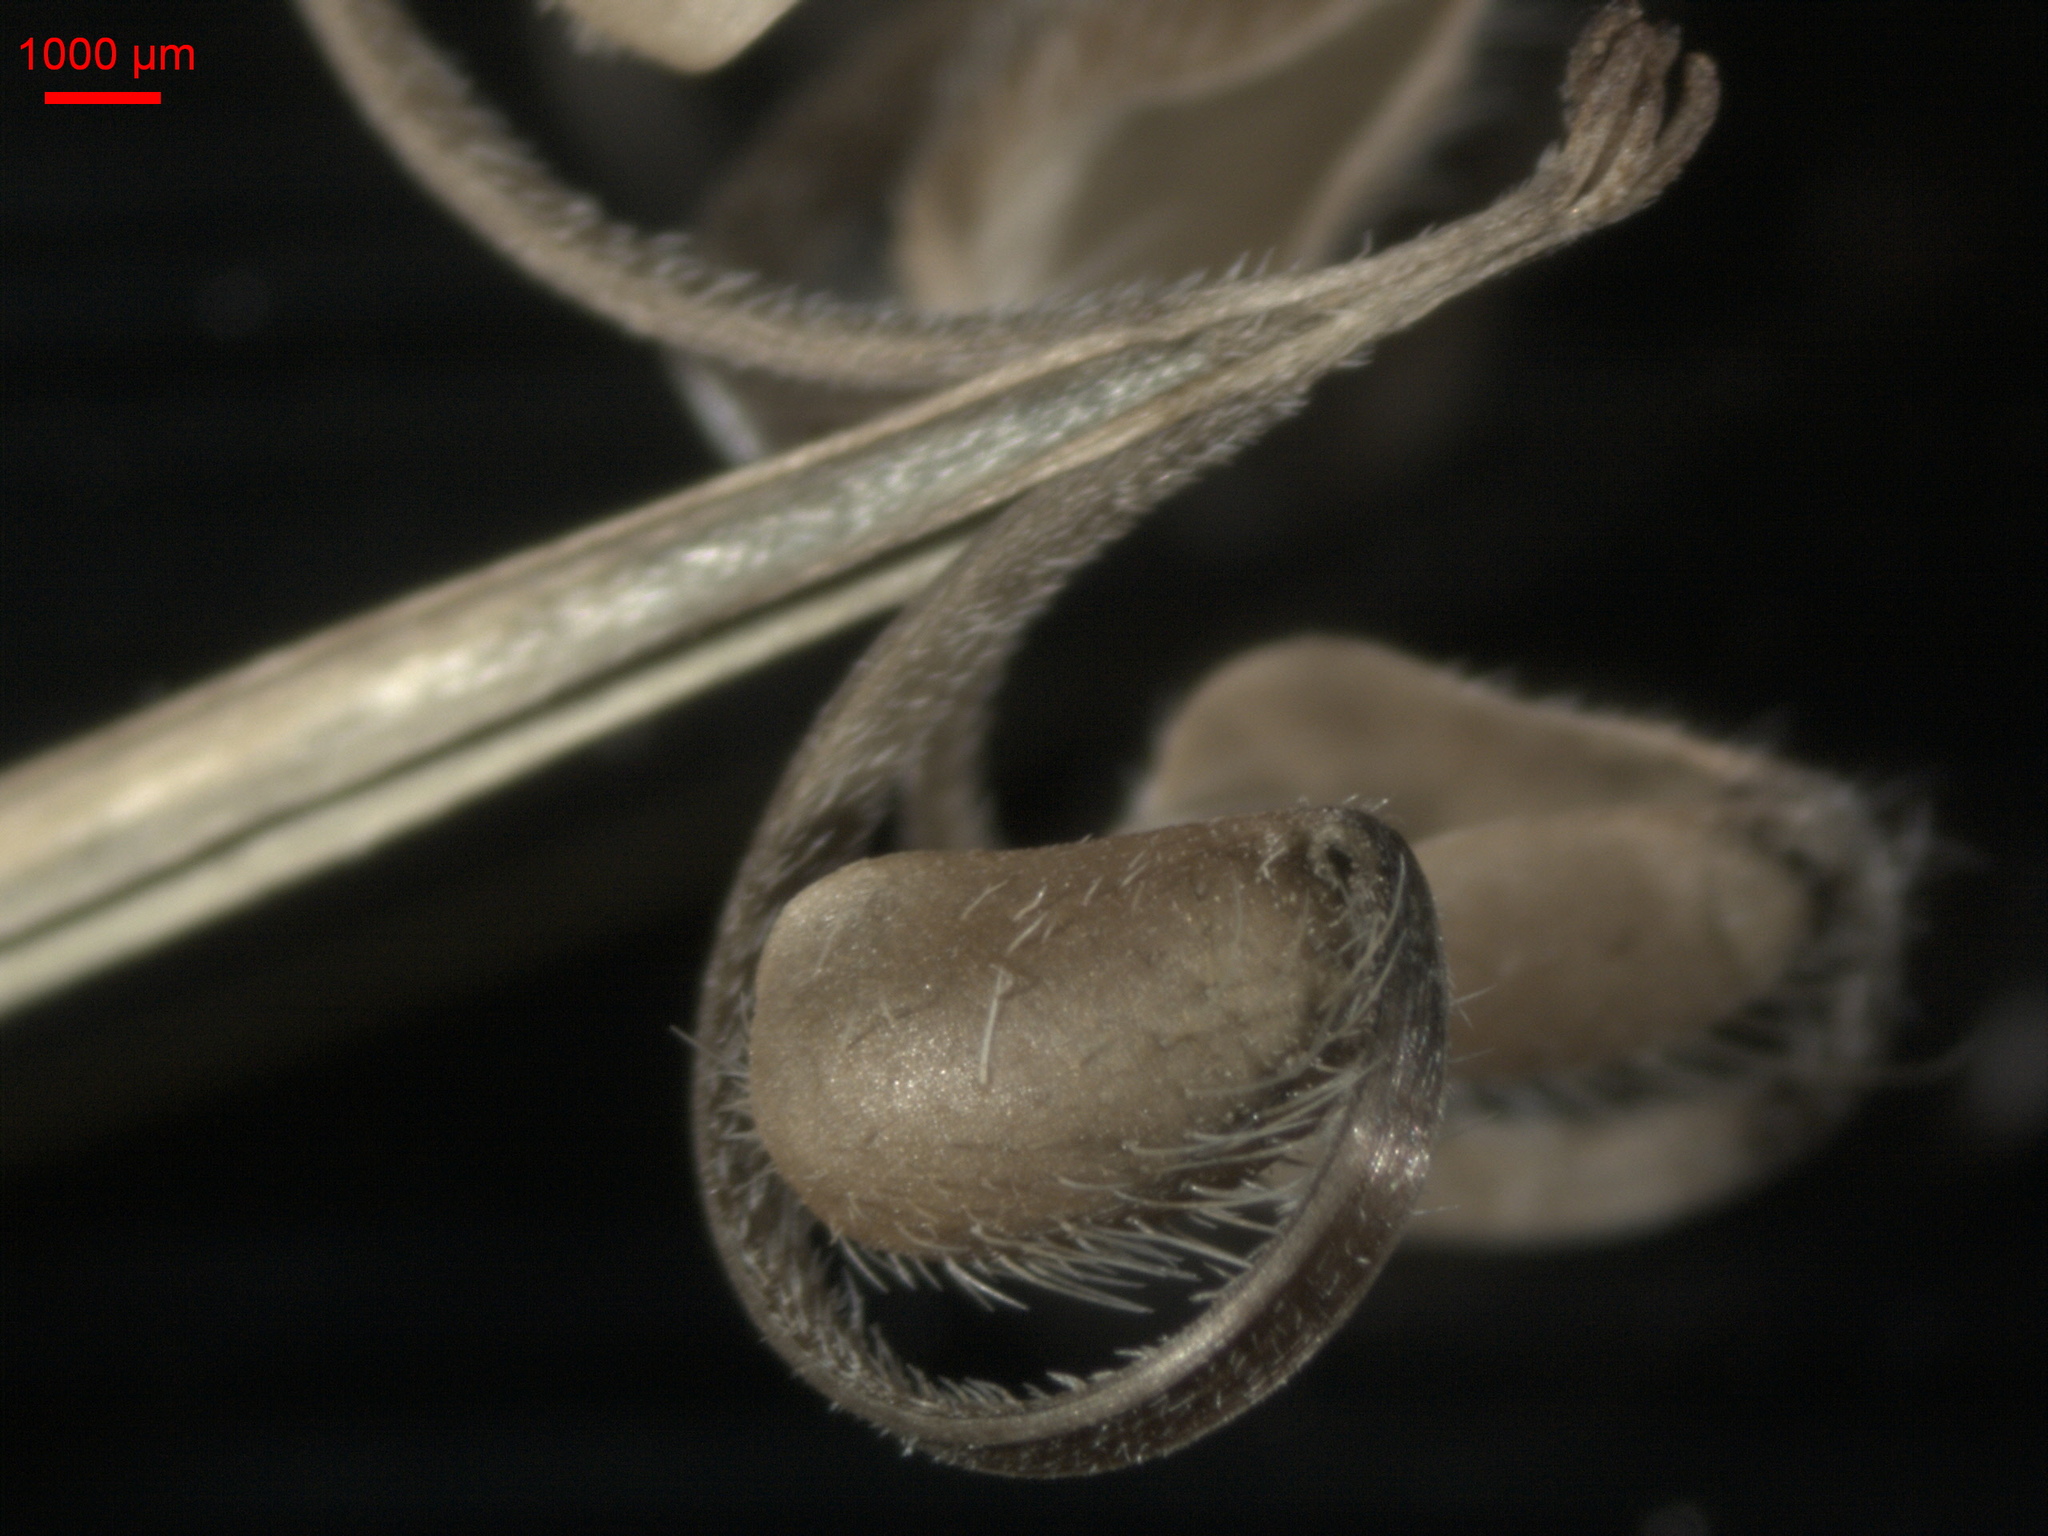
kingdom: Plantae
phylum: Tracheophyta
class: Magnoliopsida
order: Geraniales
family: Geraniaceae
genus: Geranium
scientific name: Geranium sibiricum
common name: Siberian crane's-bill
